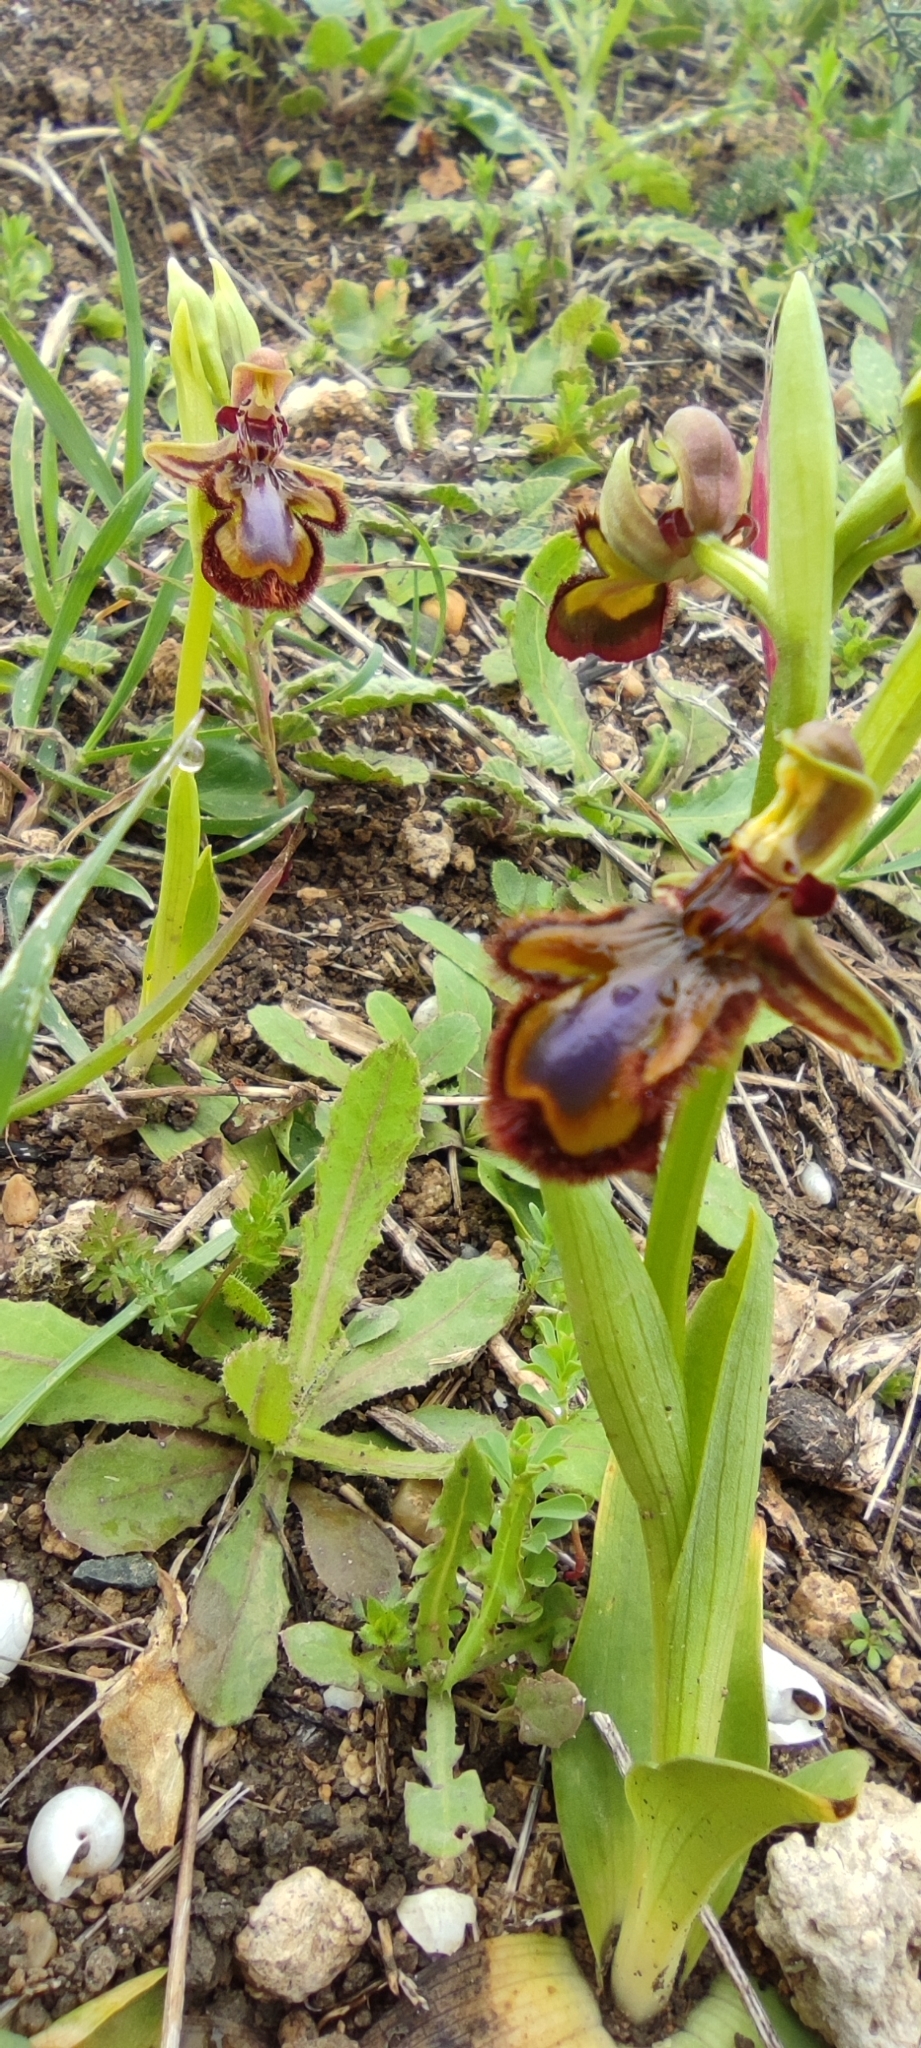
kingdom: Plantae
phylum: Tracheophyta
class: Liliopsida
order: Asparagales
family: Orchidaceae
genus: Ophrys
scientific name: Ophrys speculum
